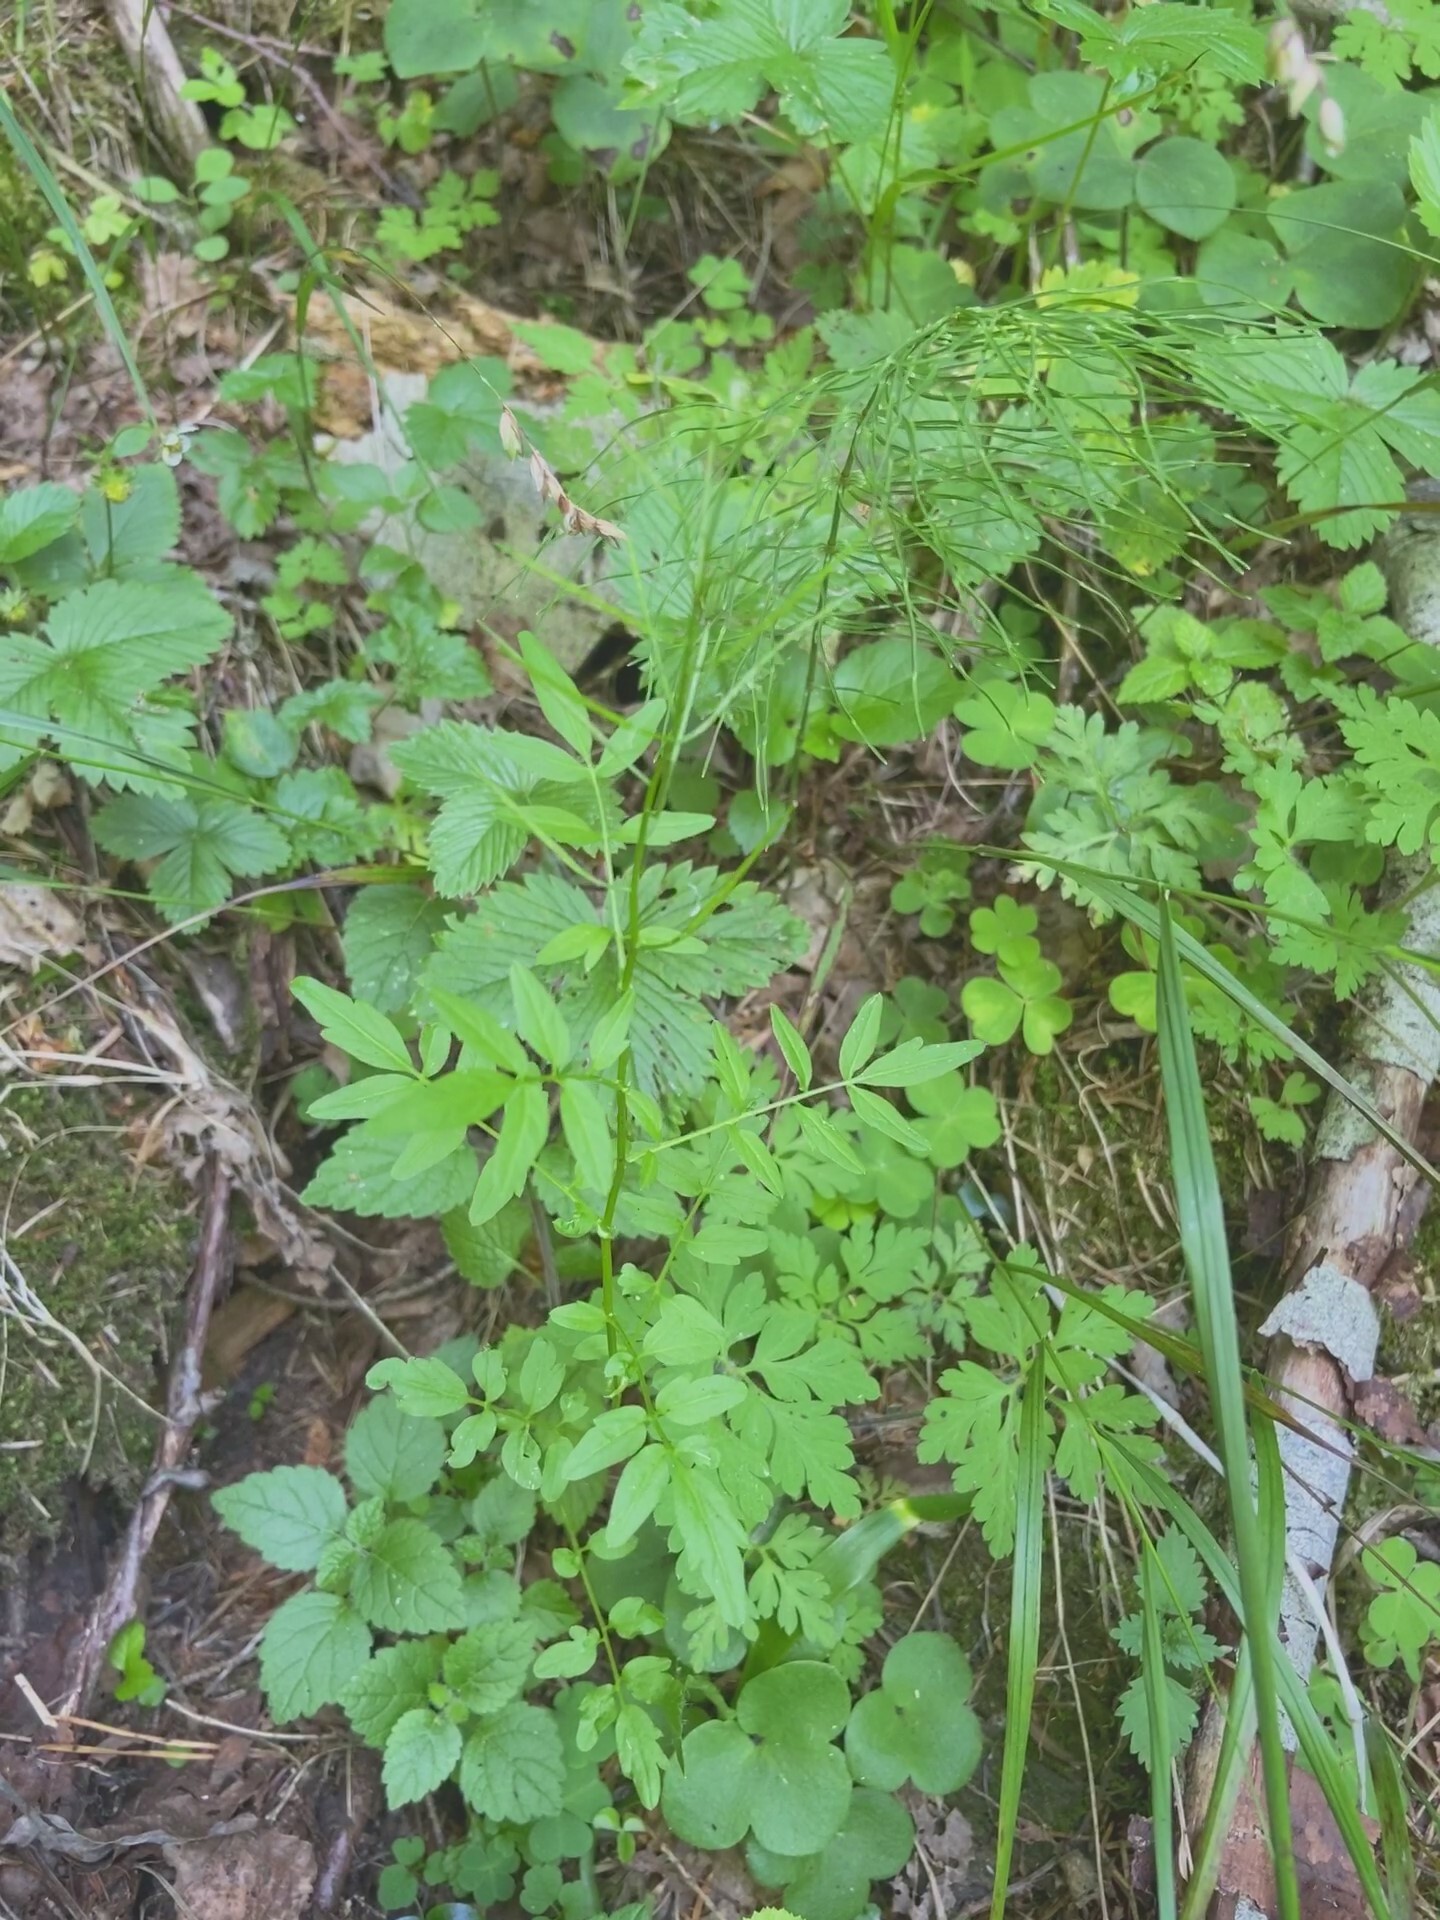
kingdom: Plantae
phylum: Tracheophyta
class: Magnoliopsida
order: Brassicales
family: Brassicaceae
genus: Cardamine
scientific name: Cardamine impatiens
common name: Narrow-leaved bitter-cress
